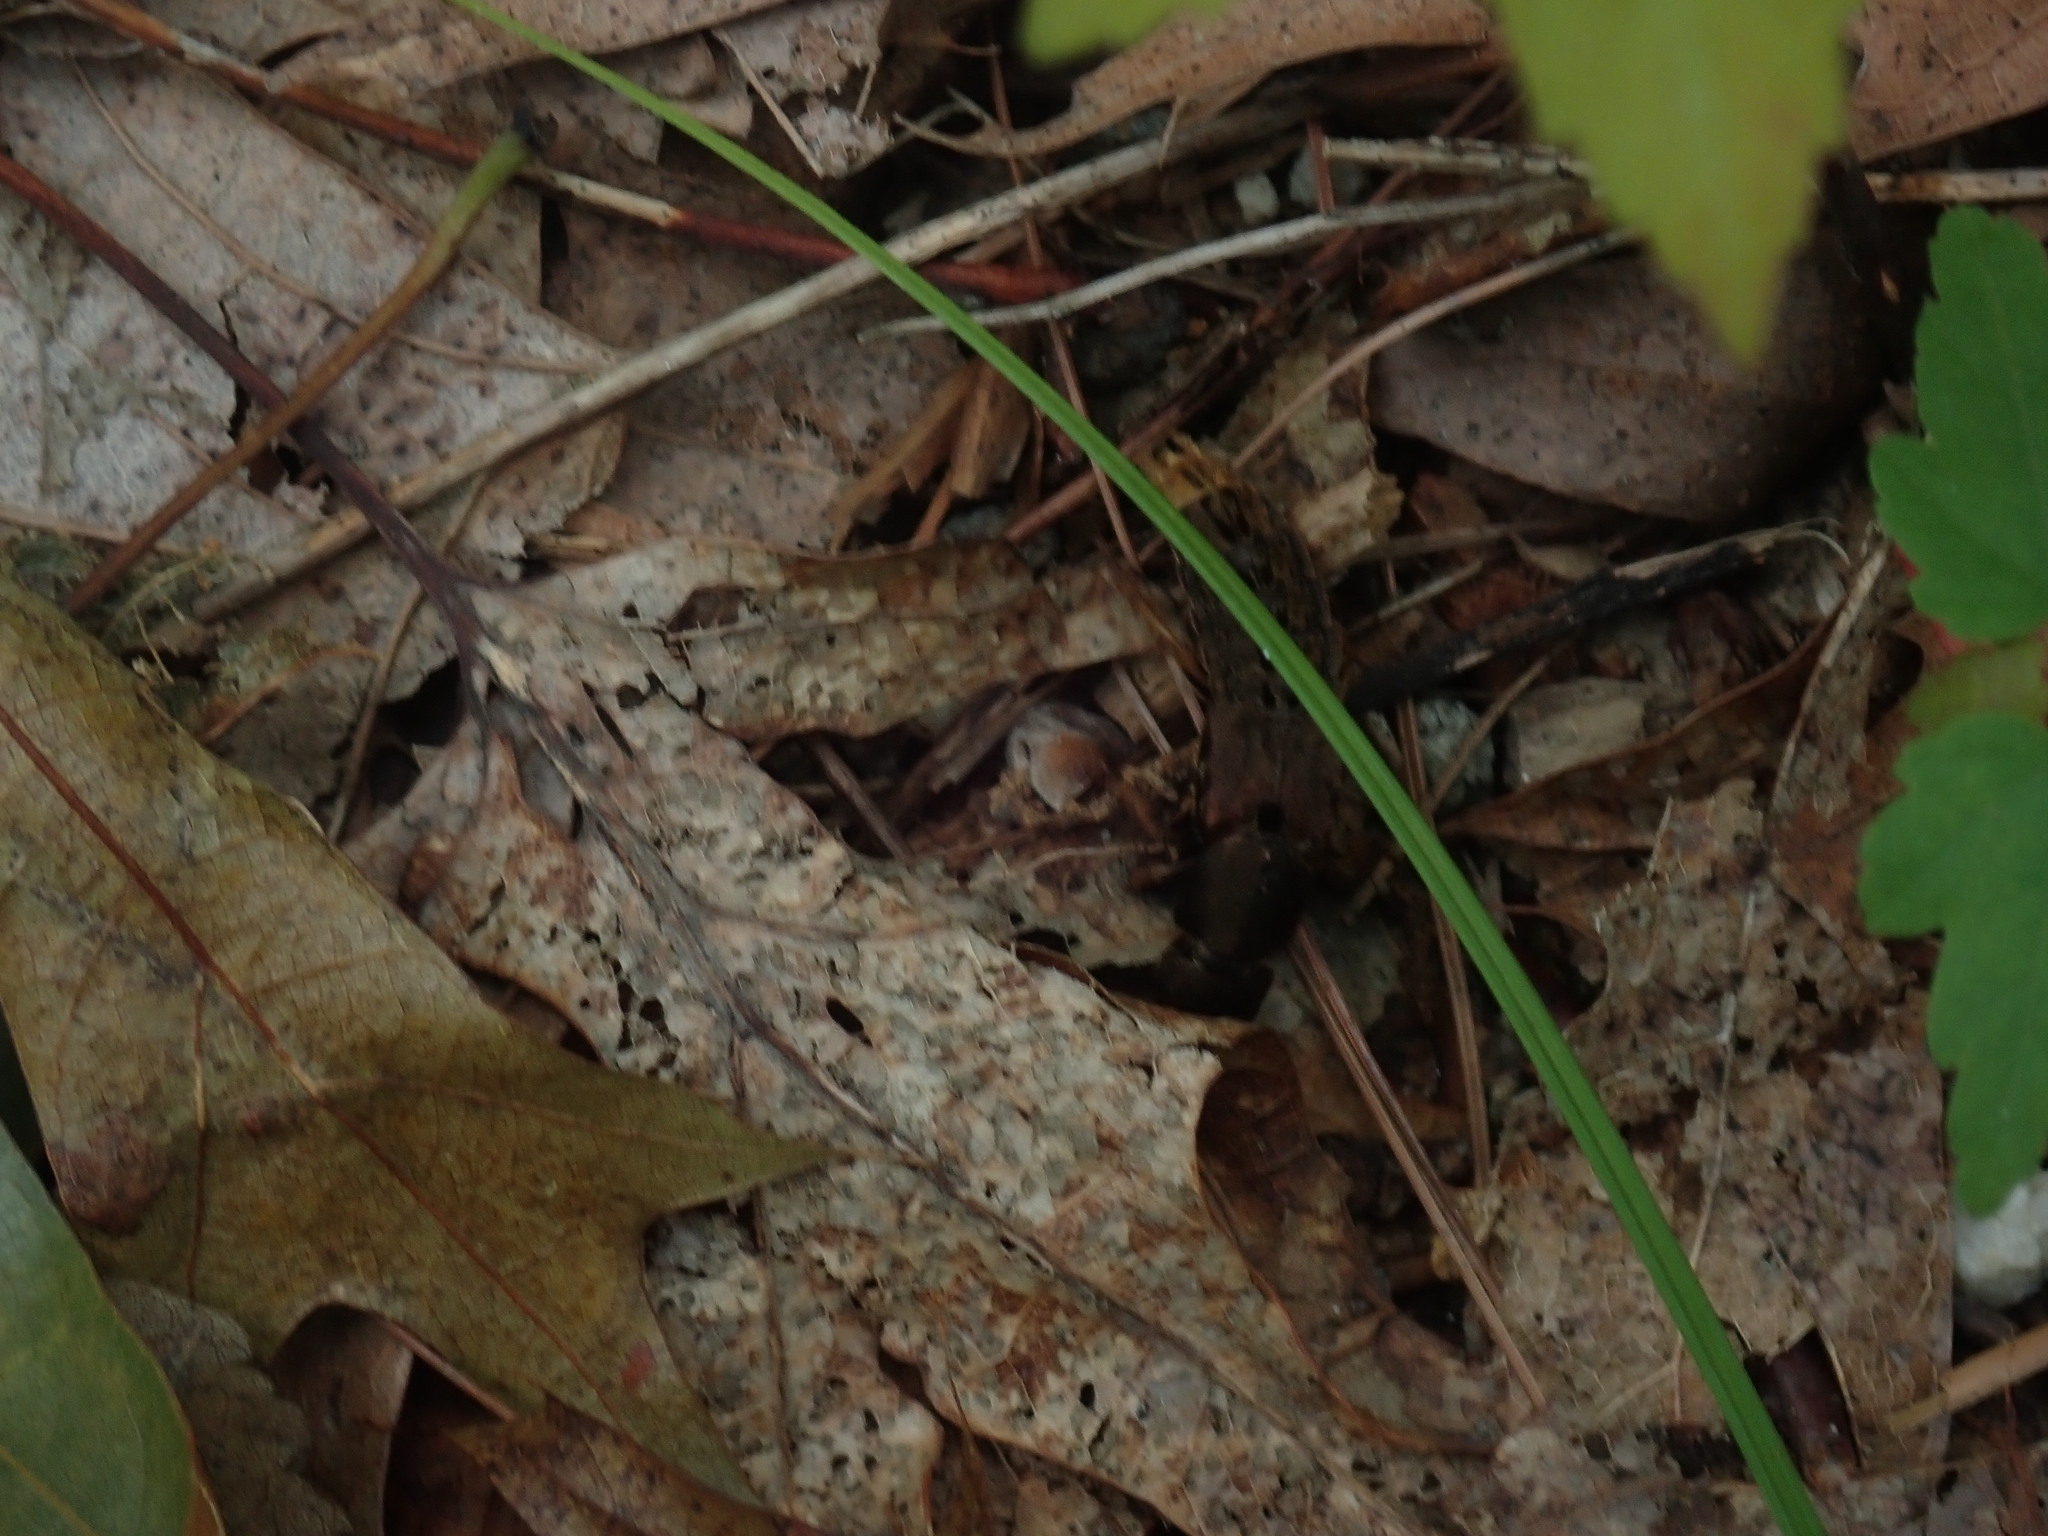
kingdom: Animalia
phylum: Arthropoda
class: Insecta
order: Coleoptera
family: Staphylinidae
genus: Platydracus
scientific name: Platydracus maculosus
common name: Brown rove beetle
